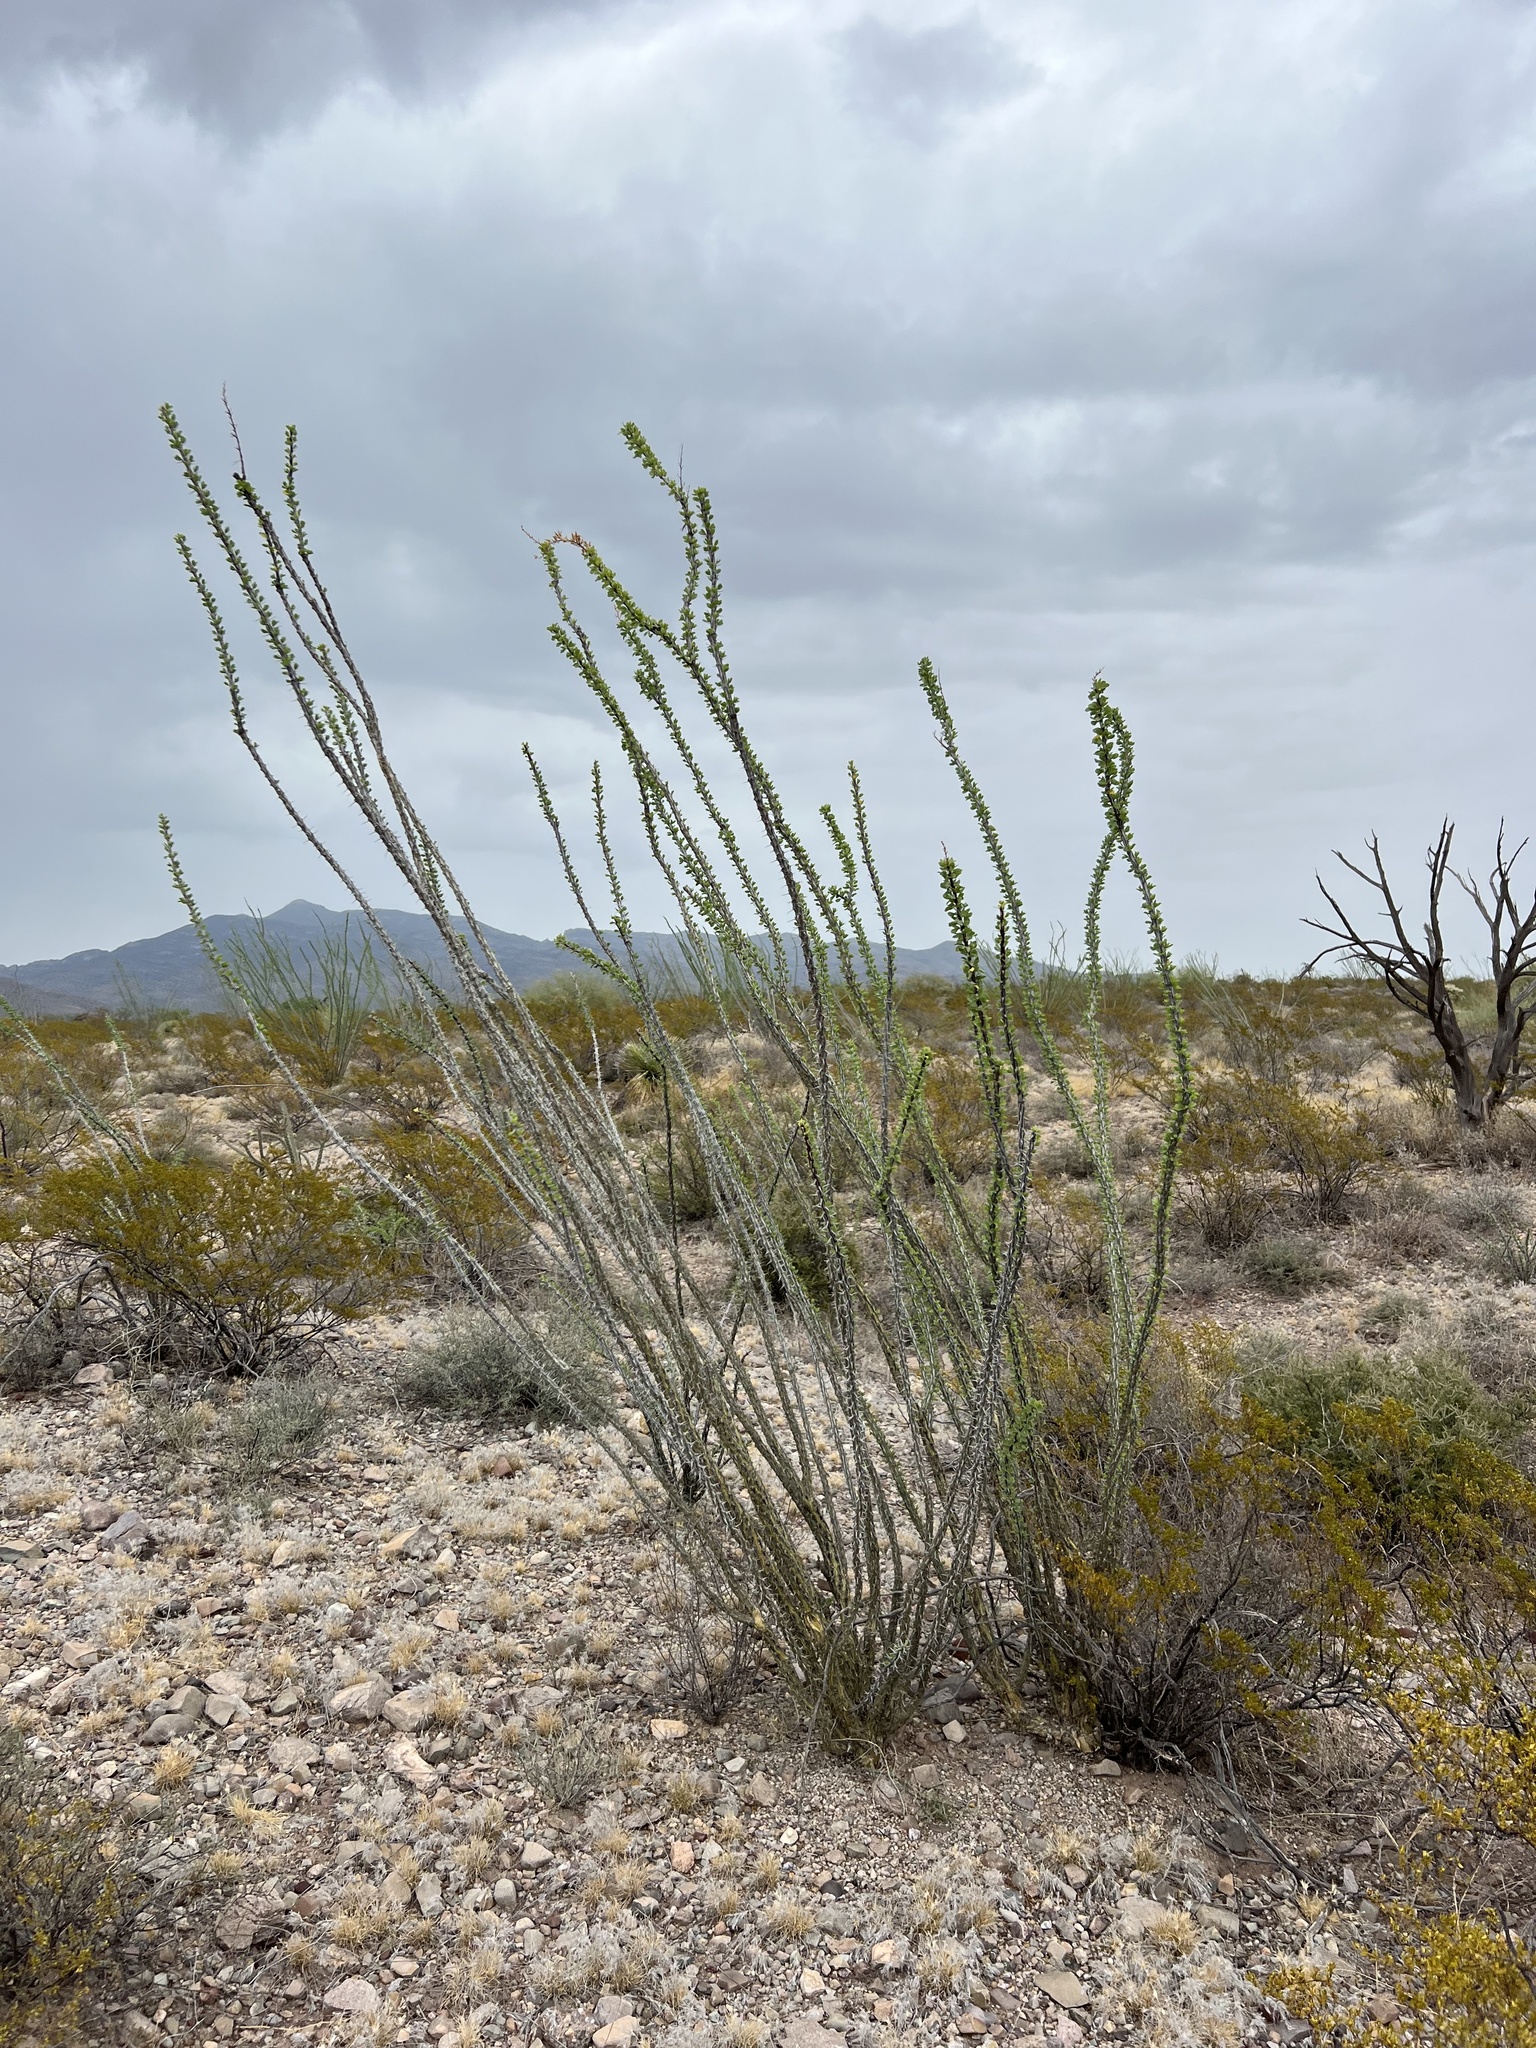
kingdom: Plantae
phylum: Tracheophyta
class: Magnoliopsida
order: Ericales
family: Fouquieriaceae
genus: Fouquieria
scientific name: Fouquieria splendens
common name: Vine-cactus
